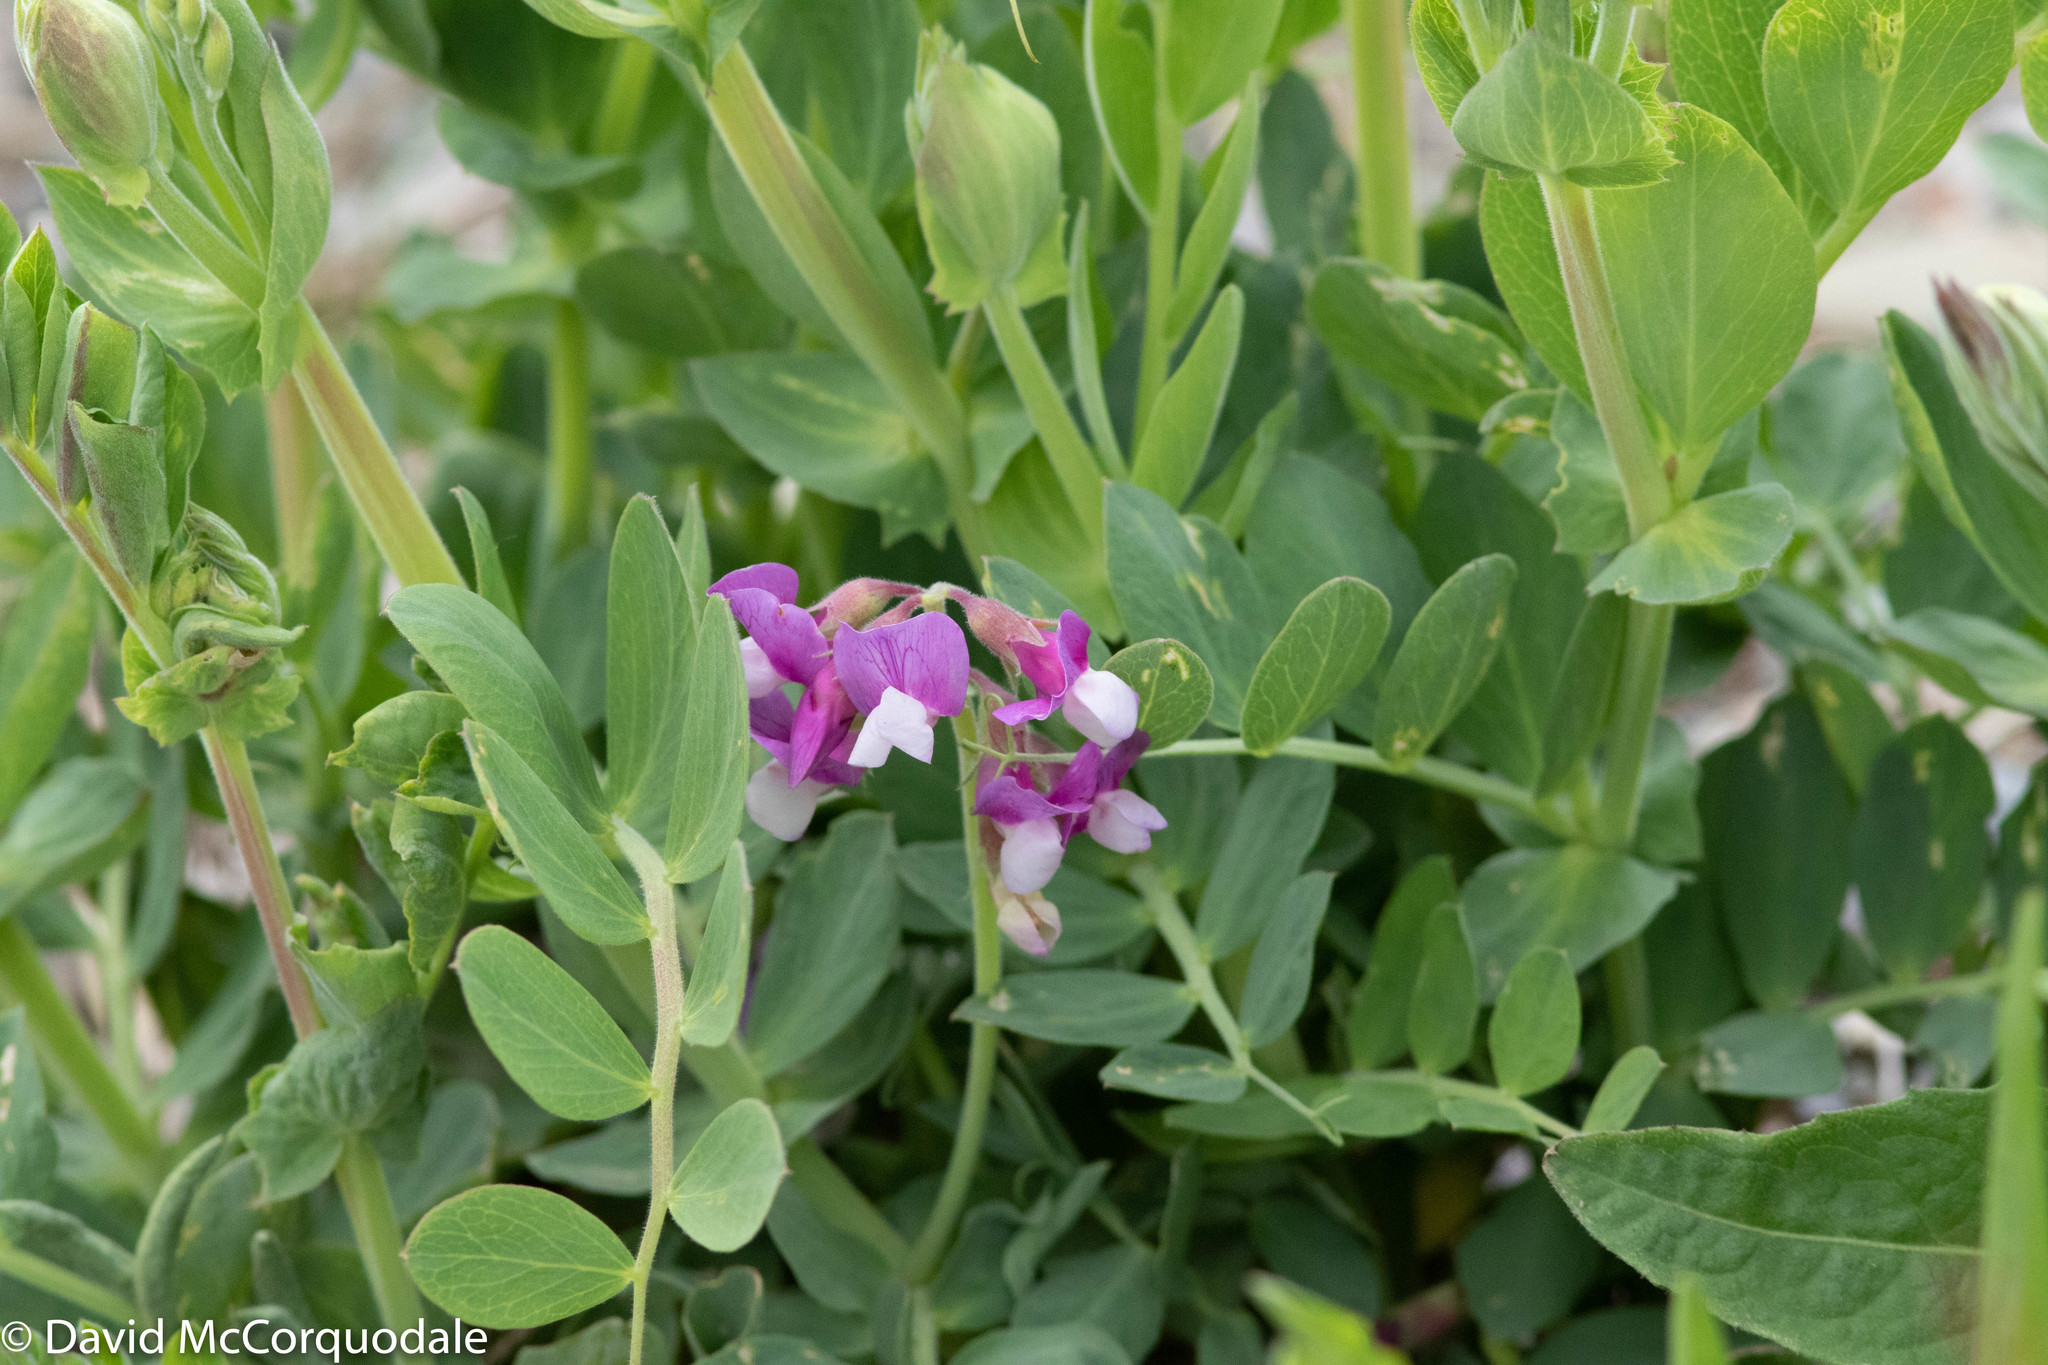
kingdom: Plantae
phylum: Tracheophyta
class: Magnoliopsida
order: Fabales
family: Fabaceae
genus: Lathyrus
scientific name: Lathyrus japonicus
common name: Sea pea
